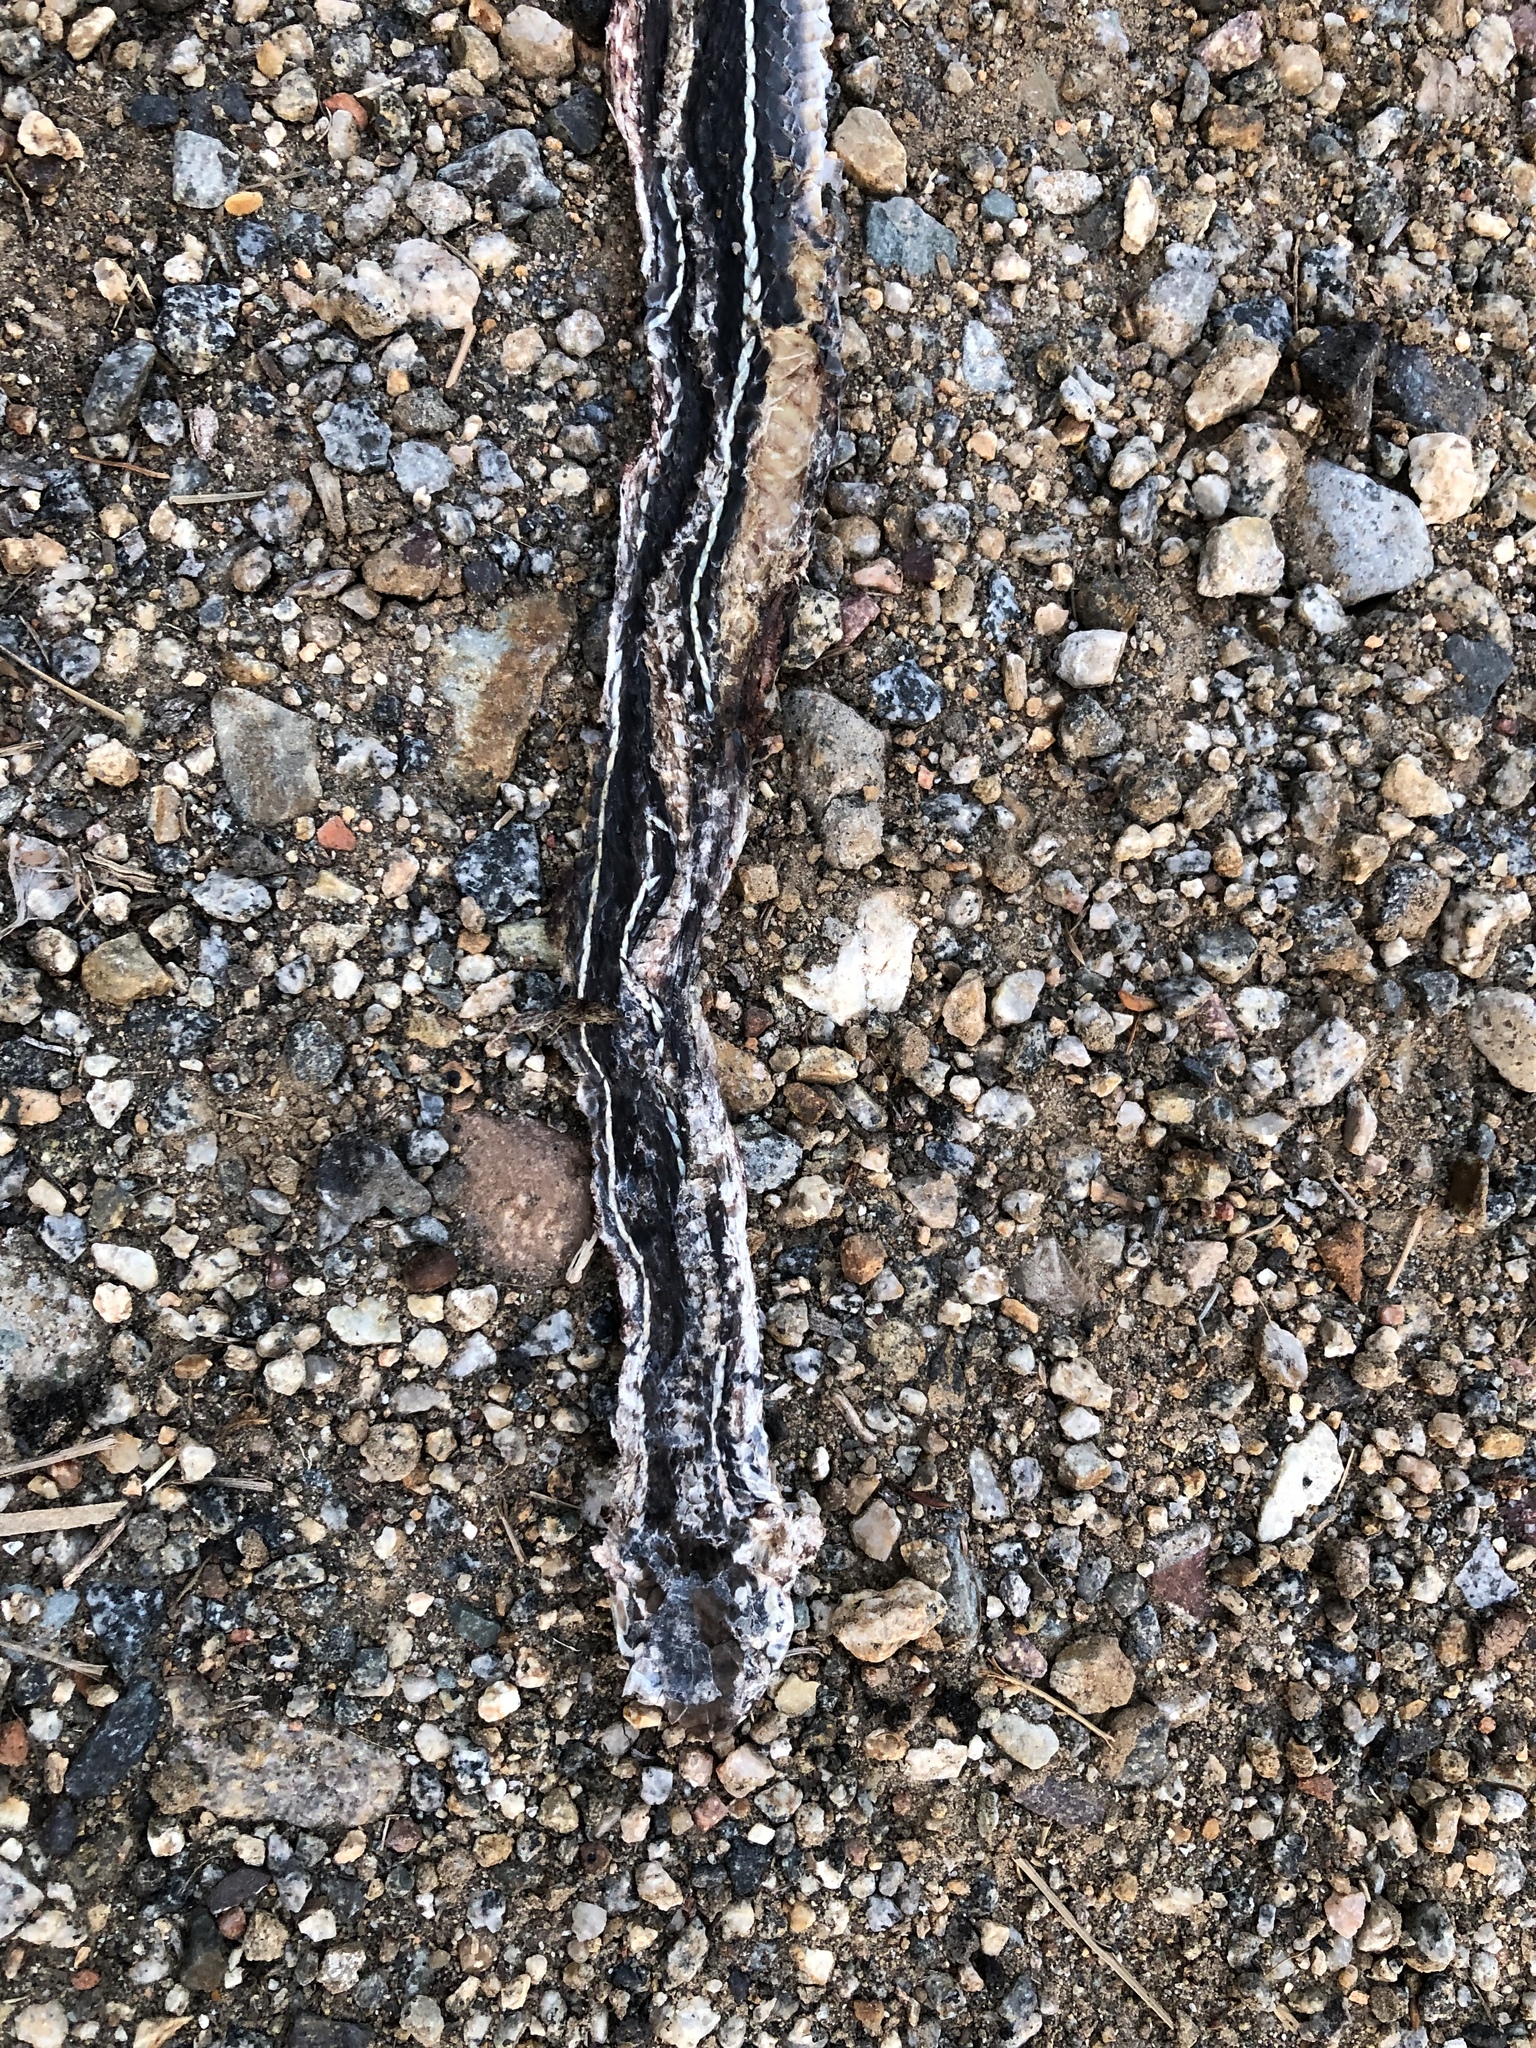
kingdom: Animalia
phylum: Chordata
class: Squamata
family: Colubridae
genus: Masticophis
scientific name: Masticophis lateralis
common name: Striped racer
